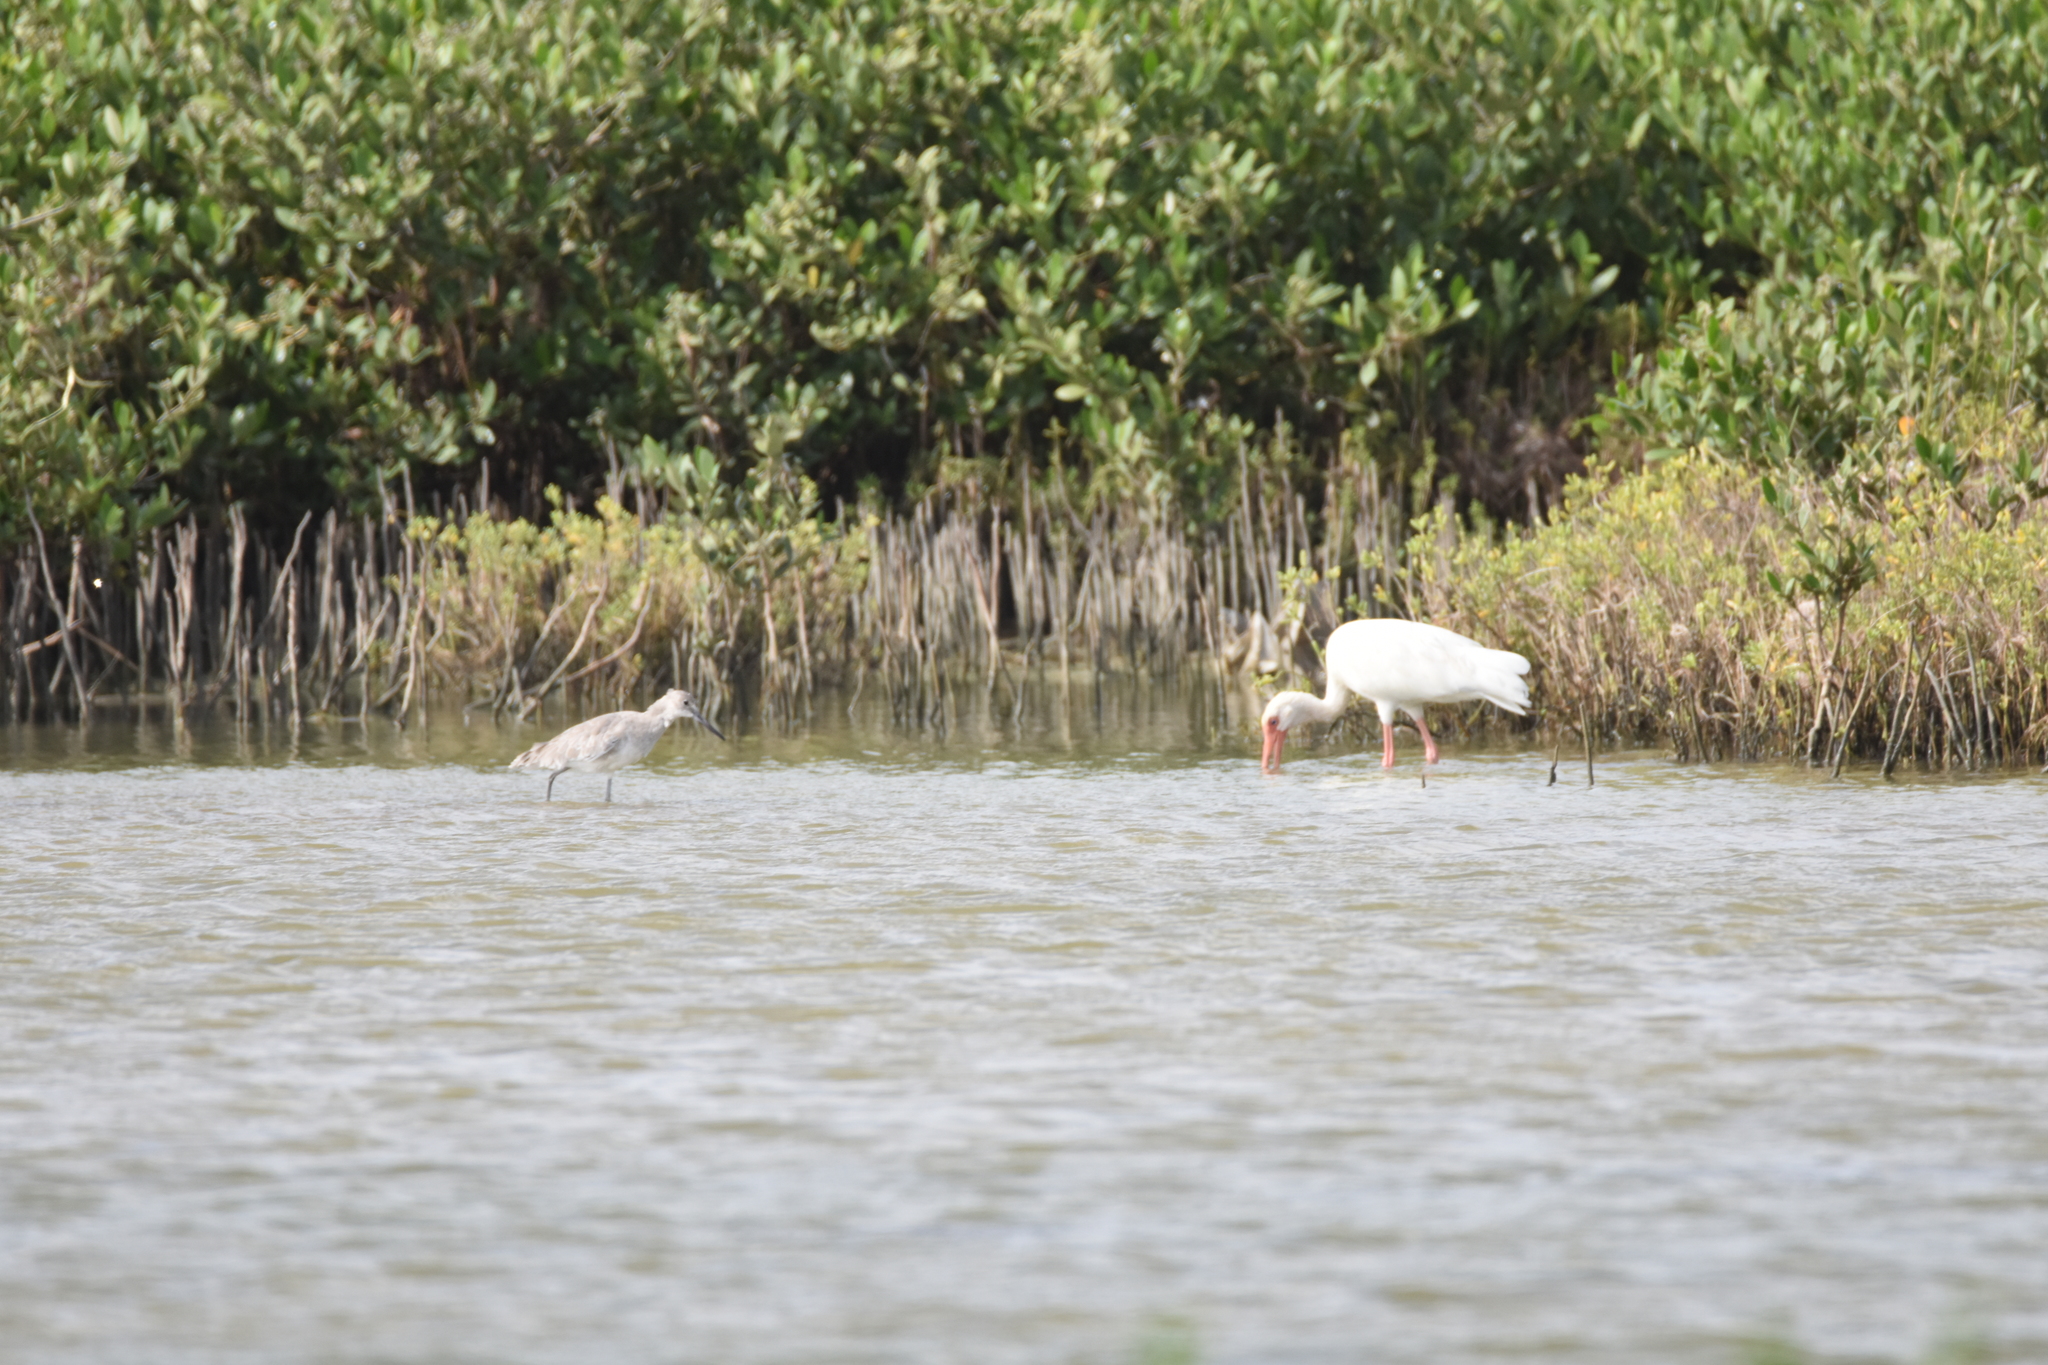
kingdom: Animalia
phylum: Chordata
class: Aves
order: Pelecaniformes
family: Threskiornithidae
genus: Eudocimus
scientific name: Eudocimus albus
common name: White ibis
